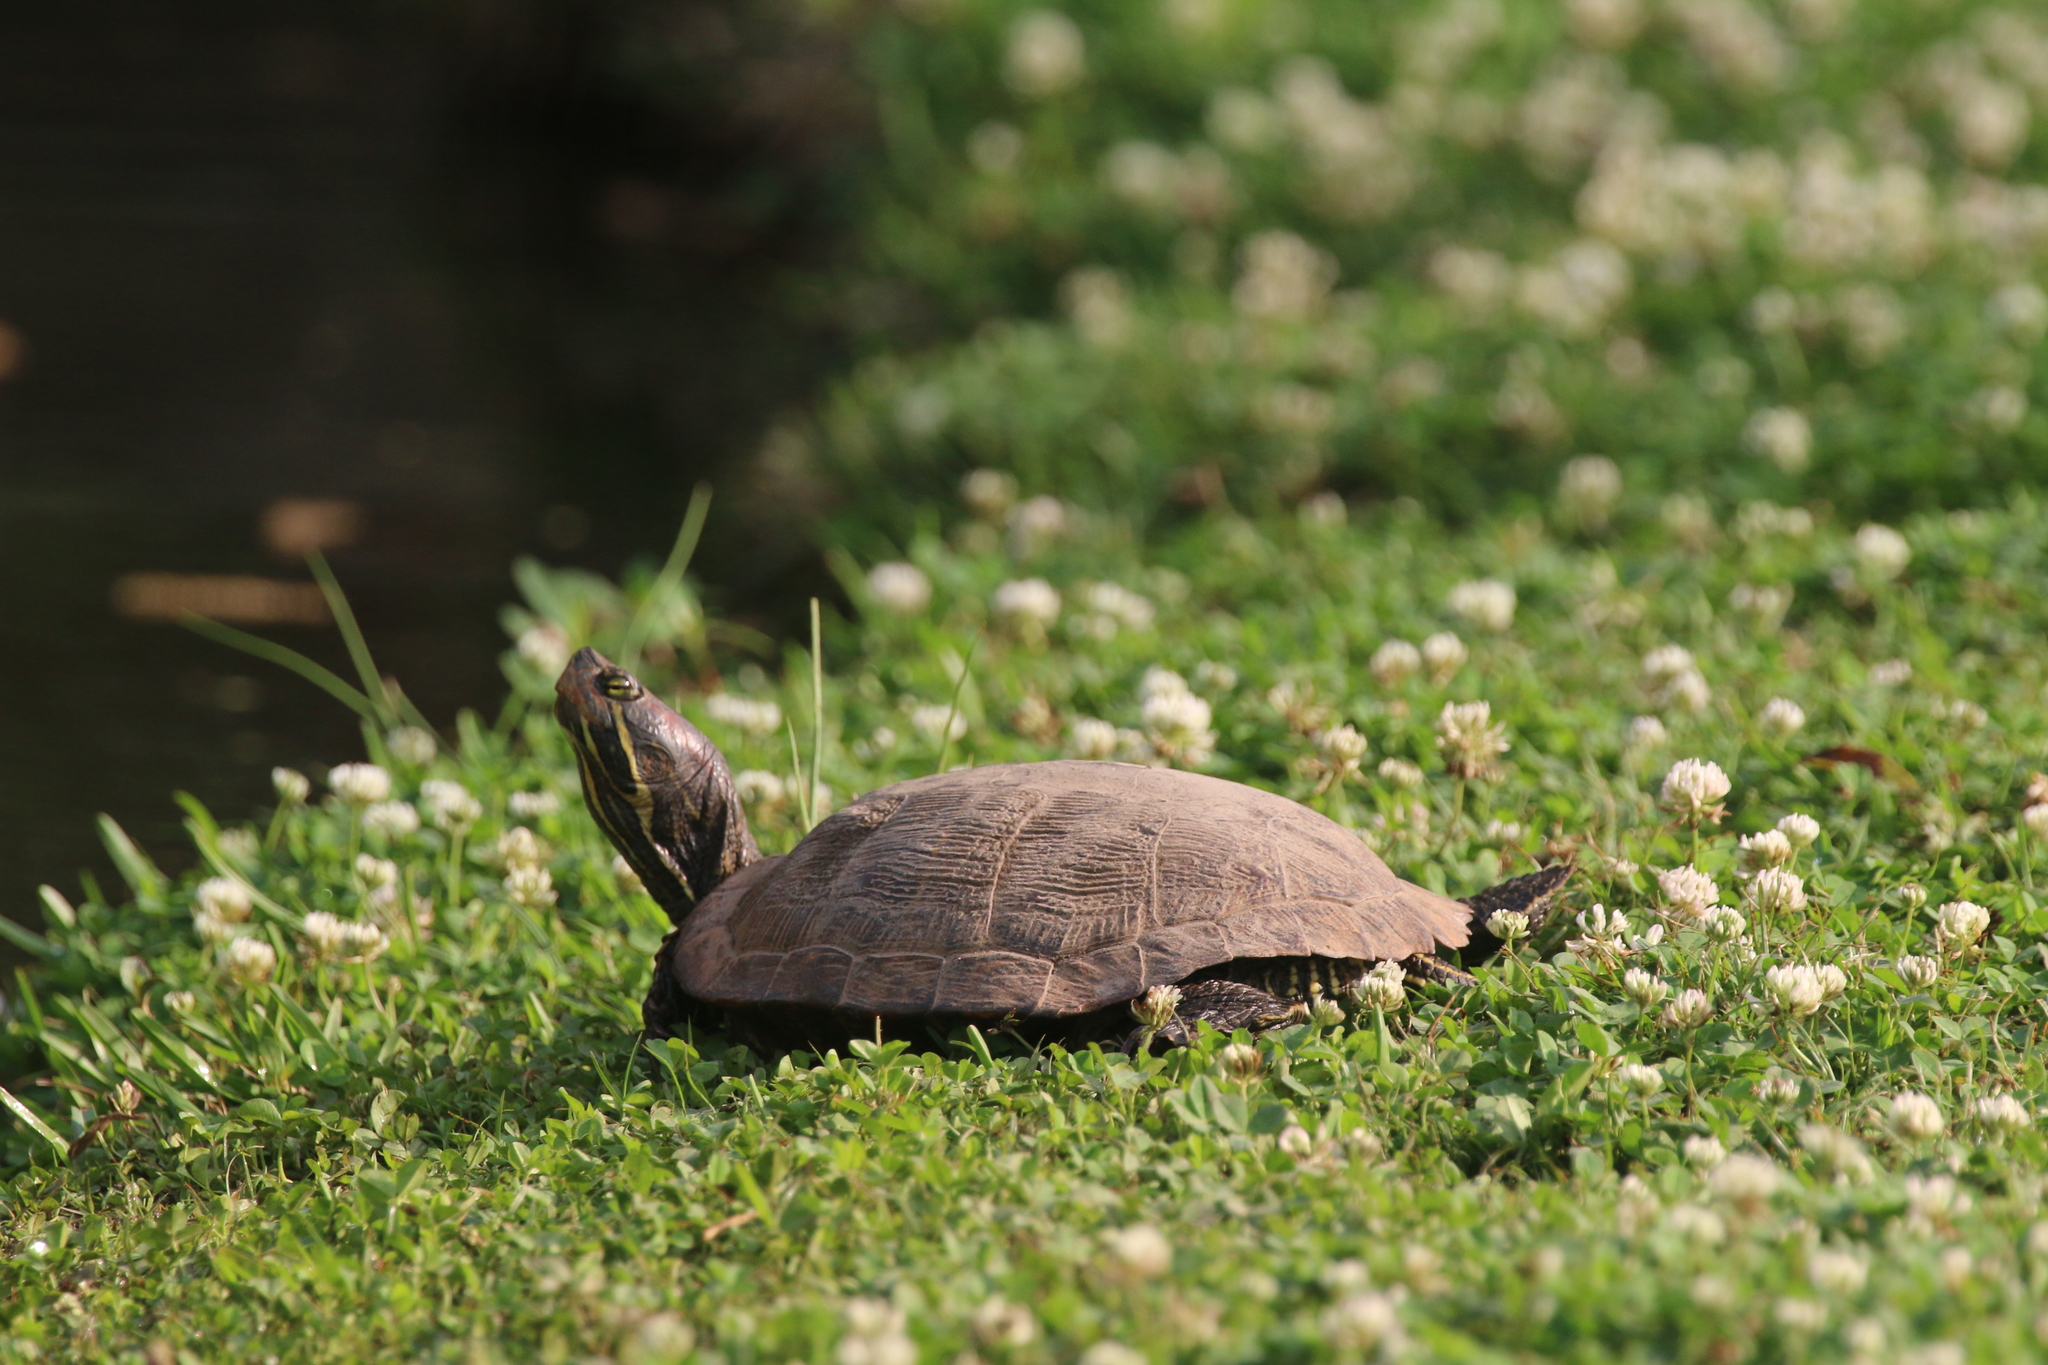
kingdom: Animalia
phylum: Chordata
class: Testudines
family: Emydidae
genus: Trachemys
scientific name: Trachemys scripta
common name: Slider
